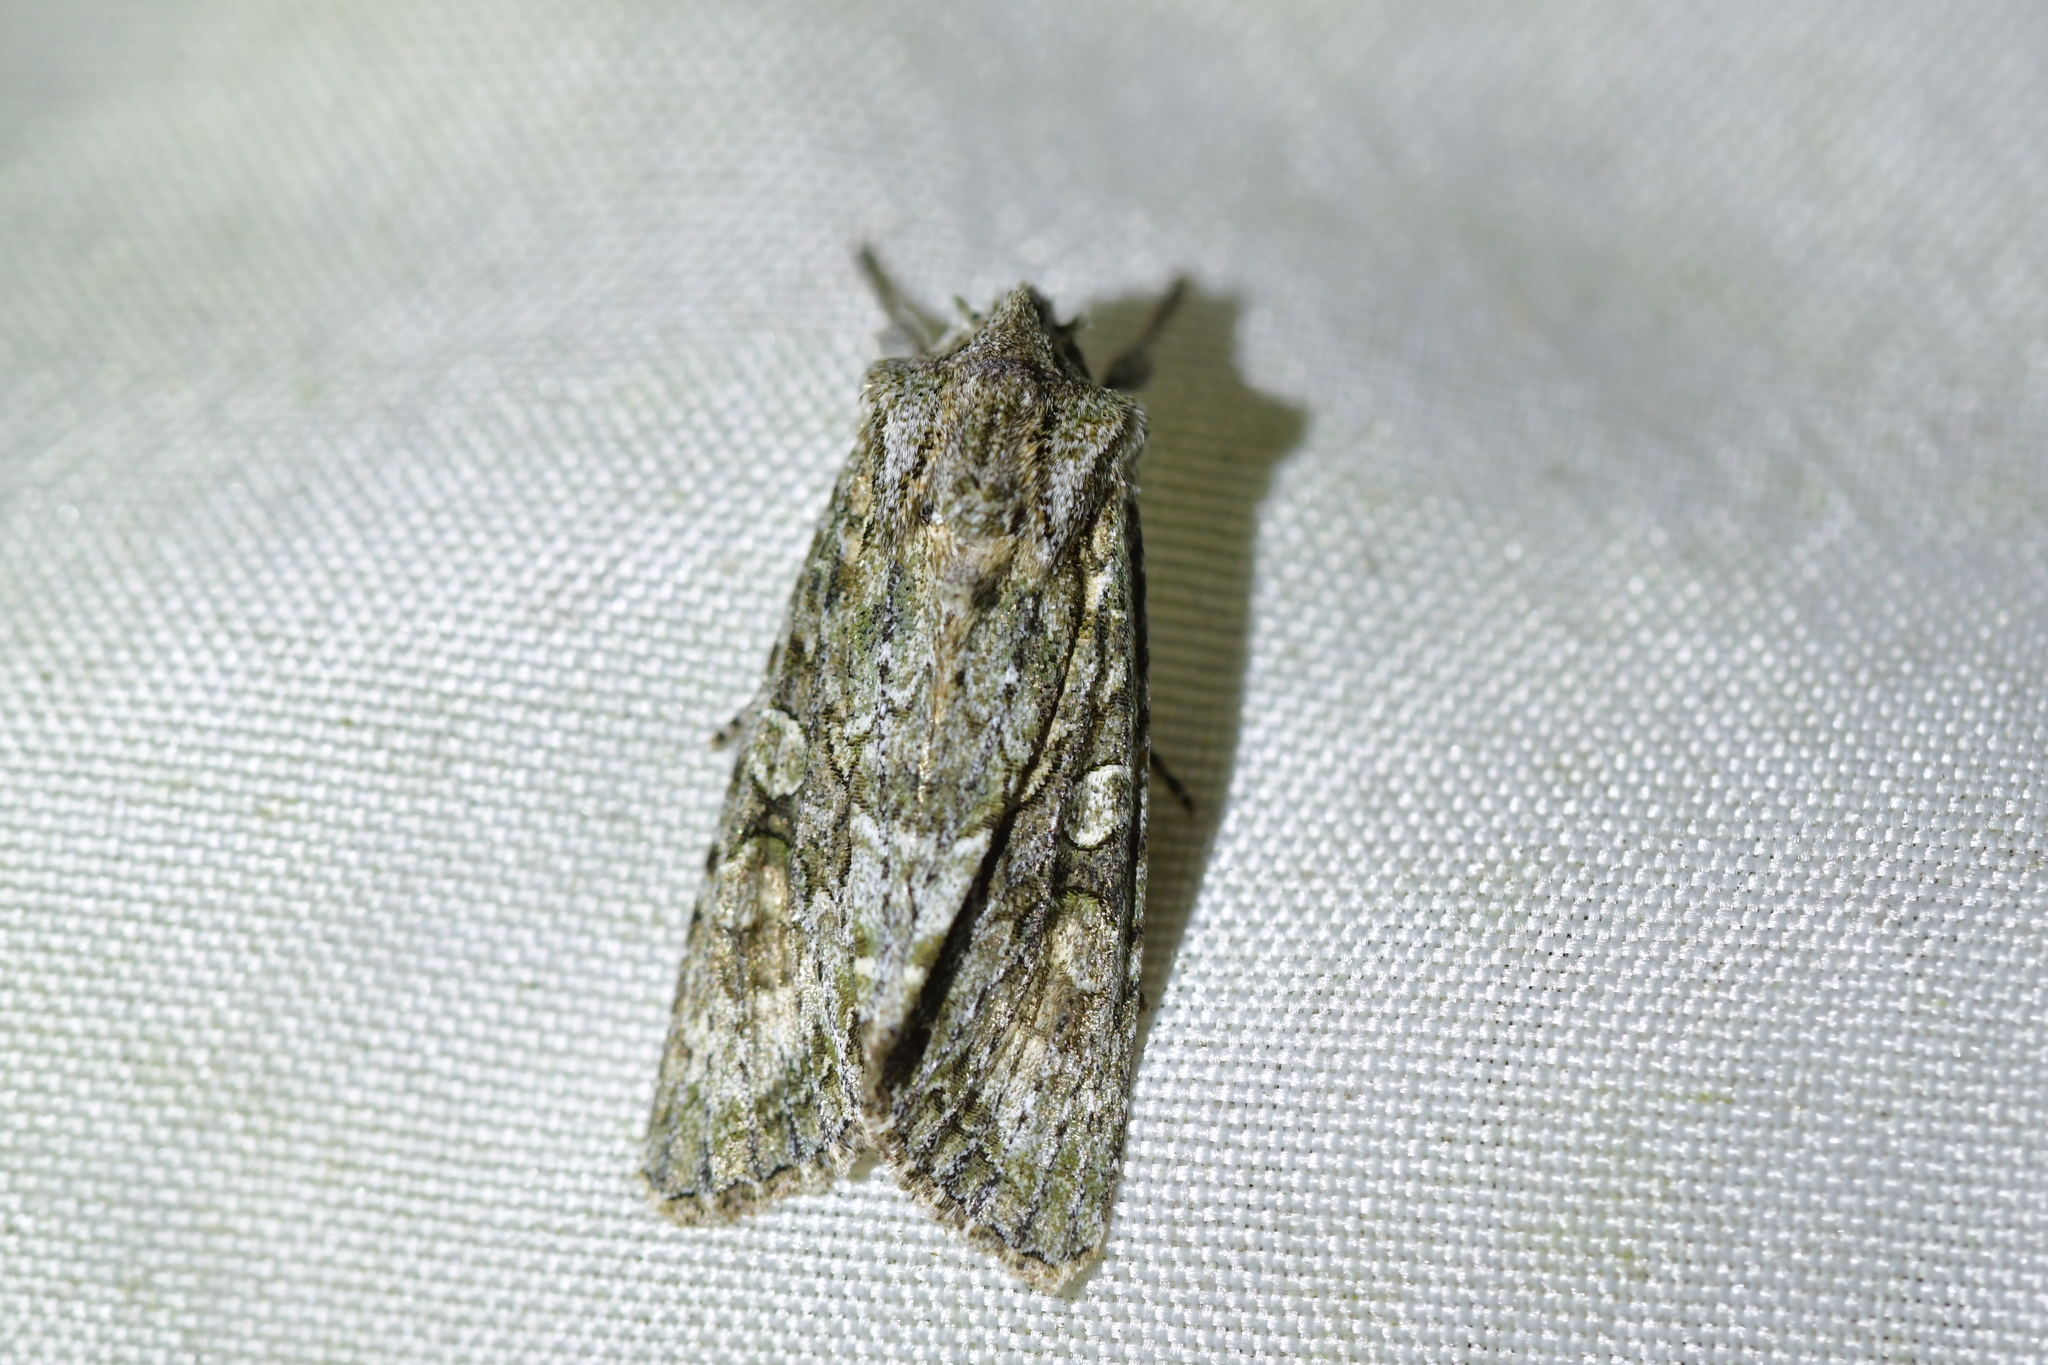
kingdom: Animalia
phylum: Arthropoda
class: Insecta
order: Lepidoptera
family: Noctuidae
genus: Ichneutica
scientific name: Ichneutica mutans
